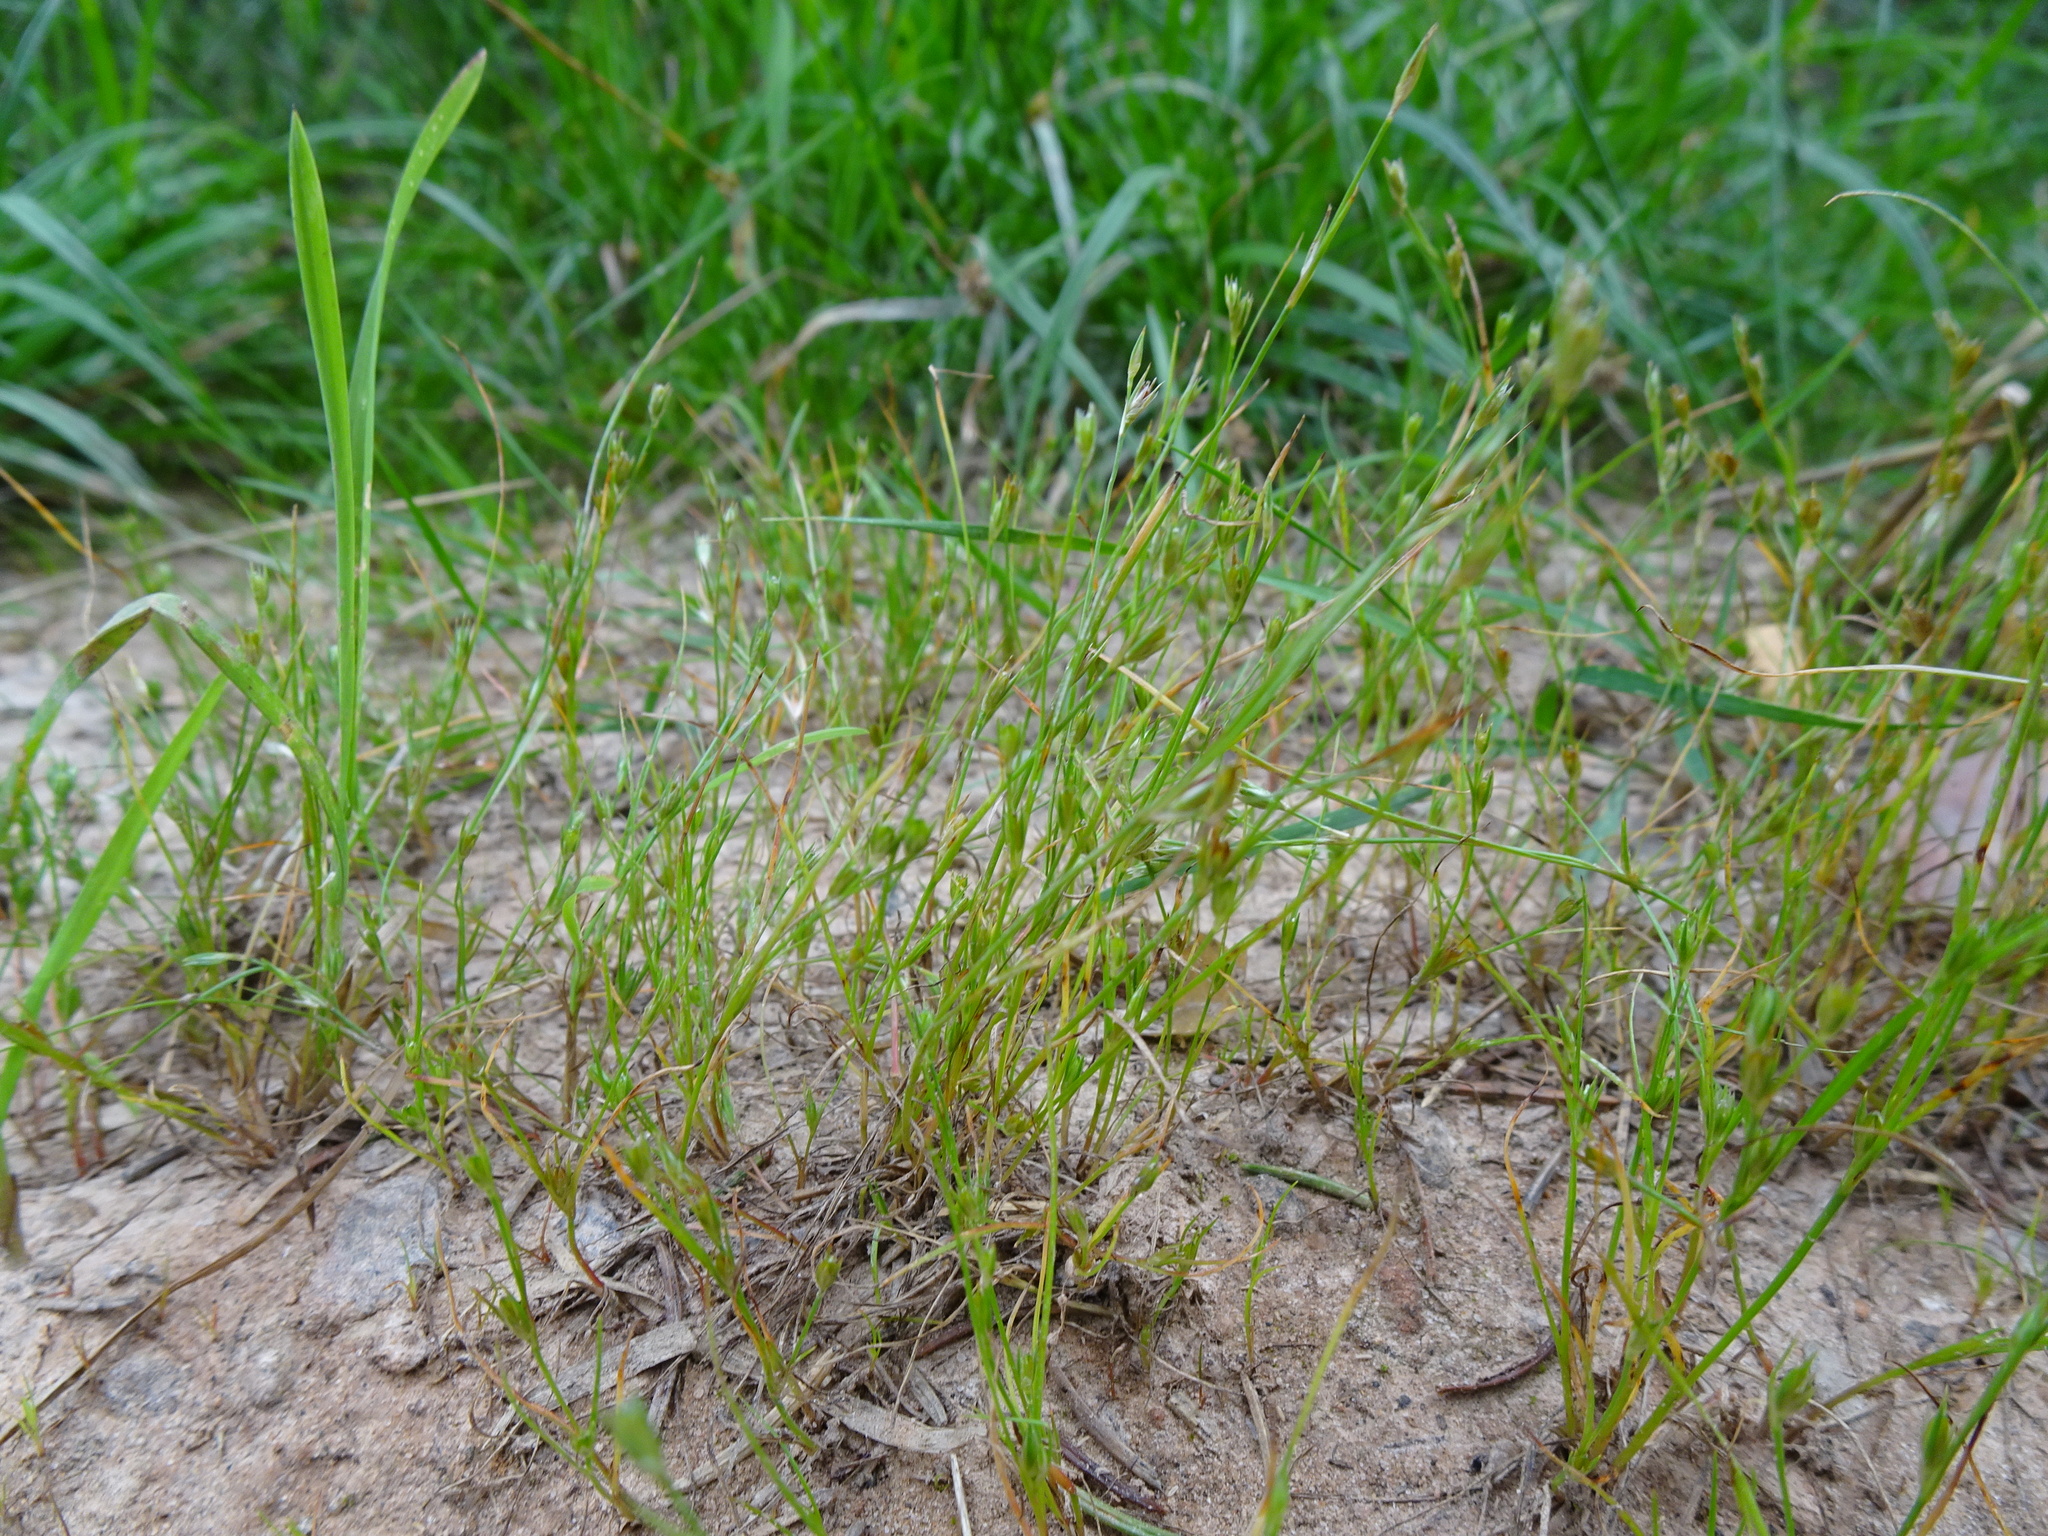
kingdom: Plantae
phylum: Tracheophyta
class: Liliopsida
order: Poales
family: Juncaceae
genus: Juncus
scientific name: Juncus bufonius
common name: Toad rush
